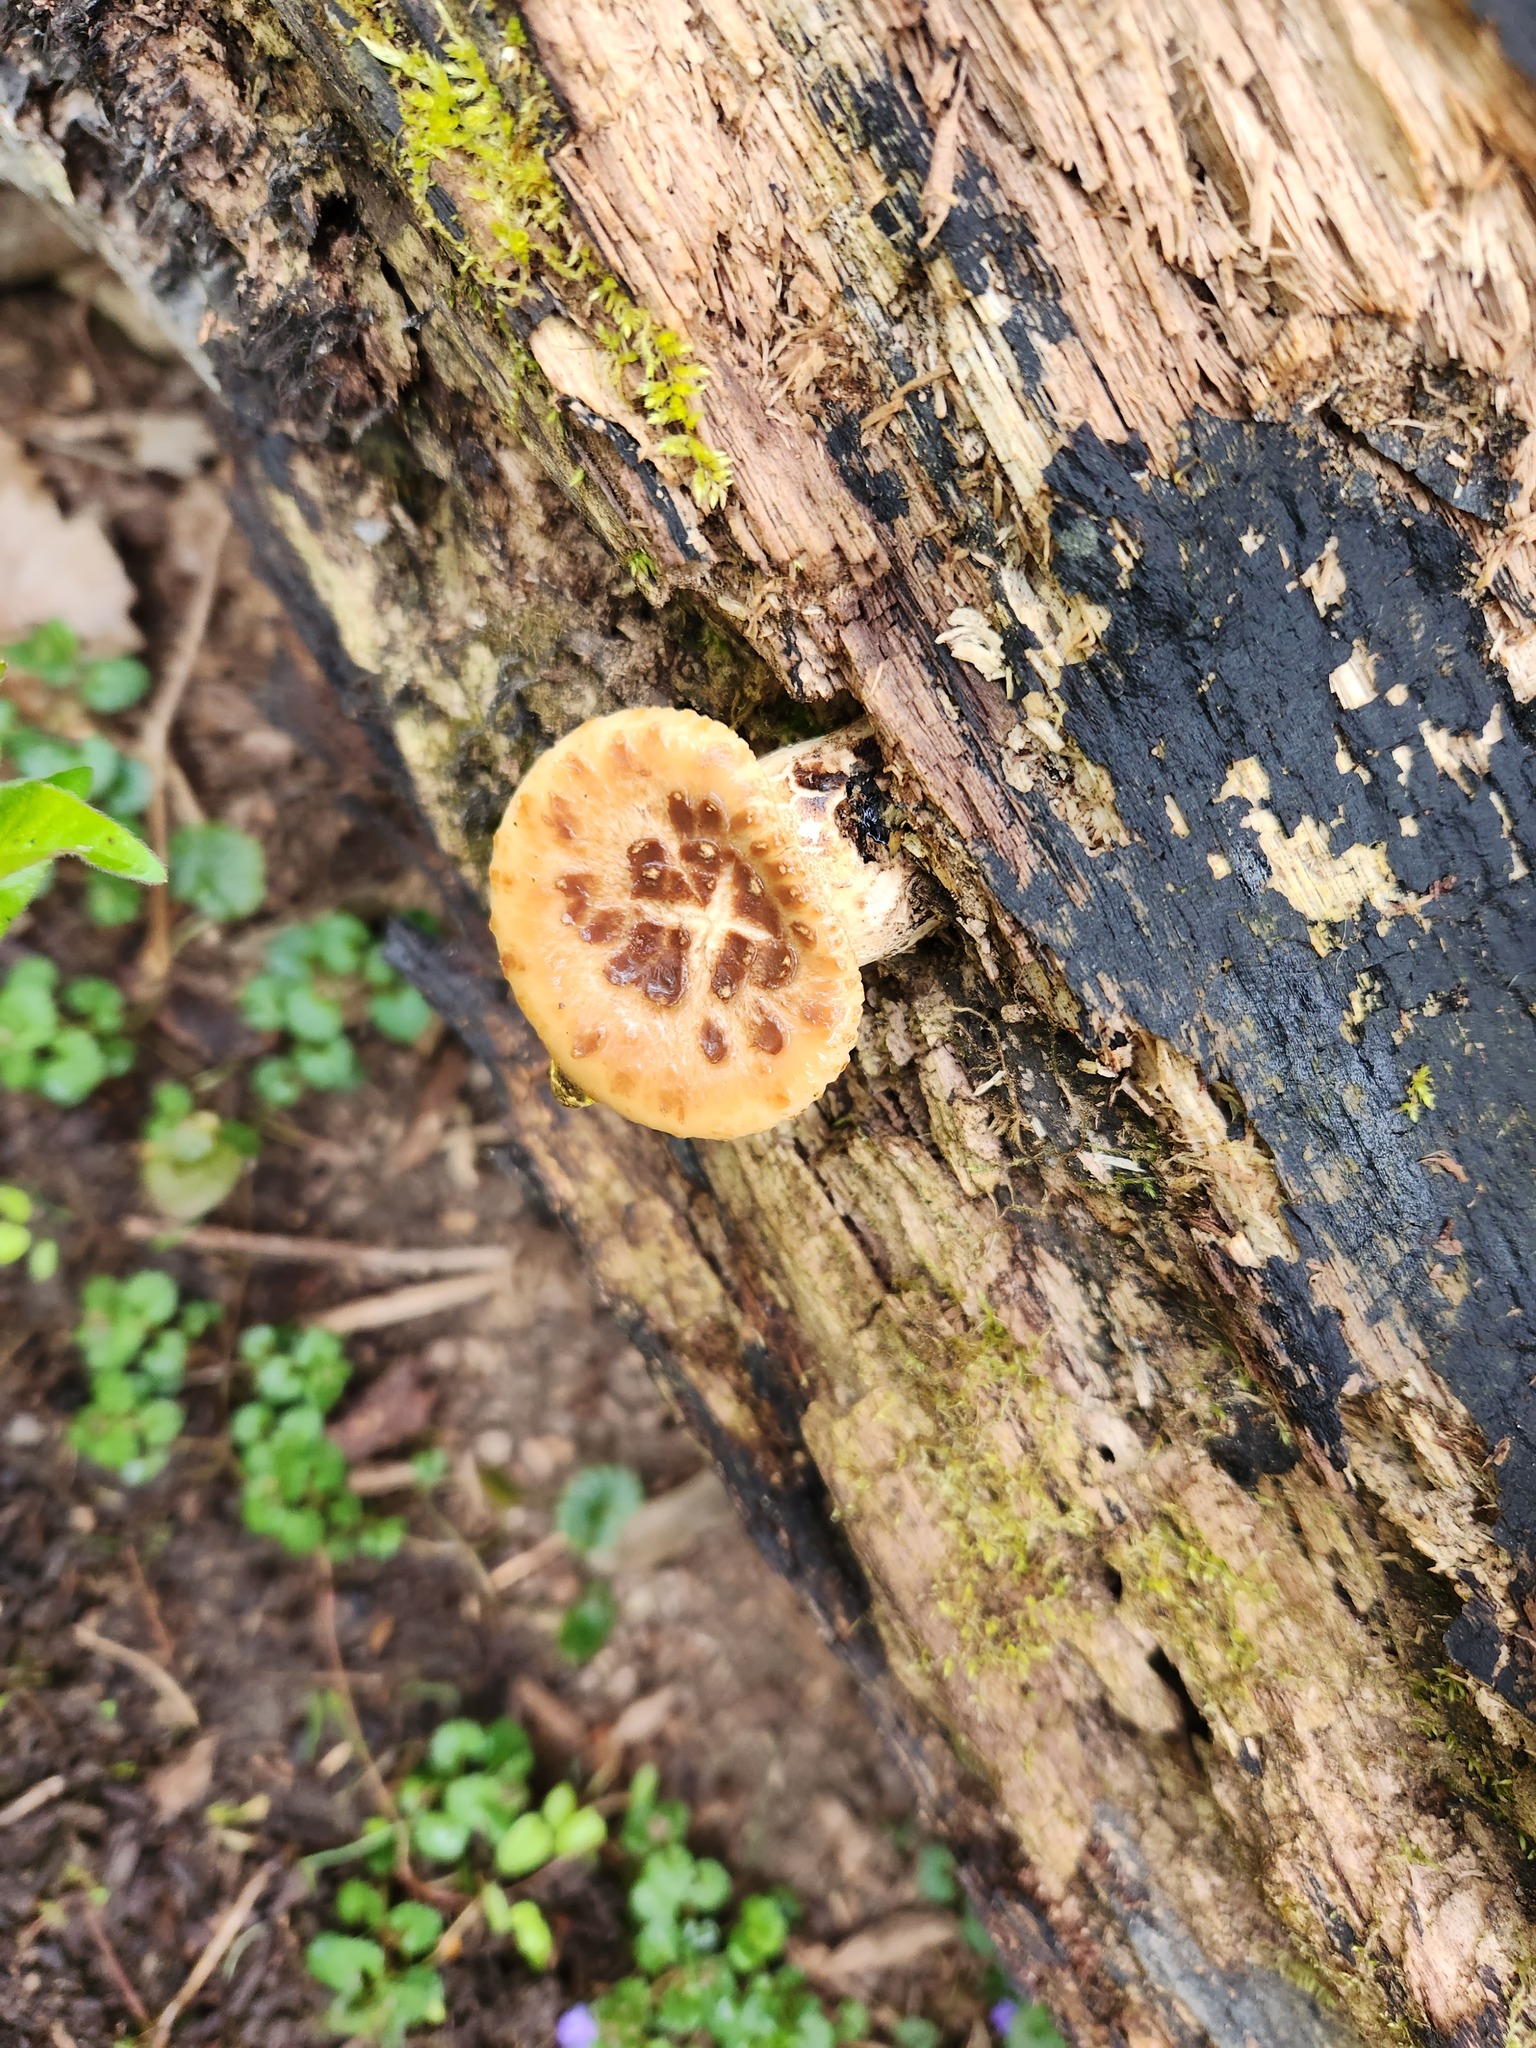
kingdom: Fungi
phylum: Basidiomycota
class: Agaricomycetes
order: Polyporales
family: Polyporaceae
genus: Cerioporus
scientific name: Cerioporus squamosus
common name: Dryad's saddle
